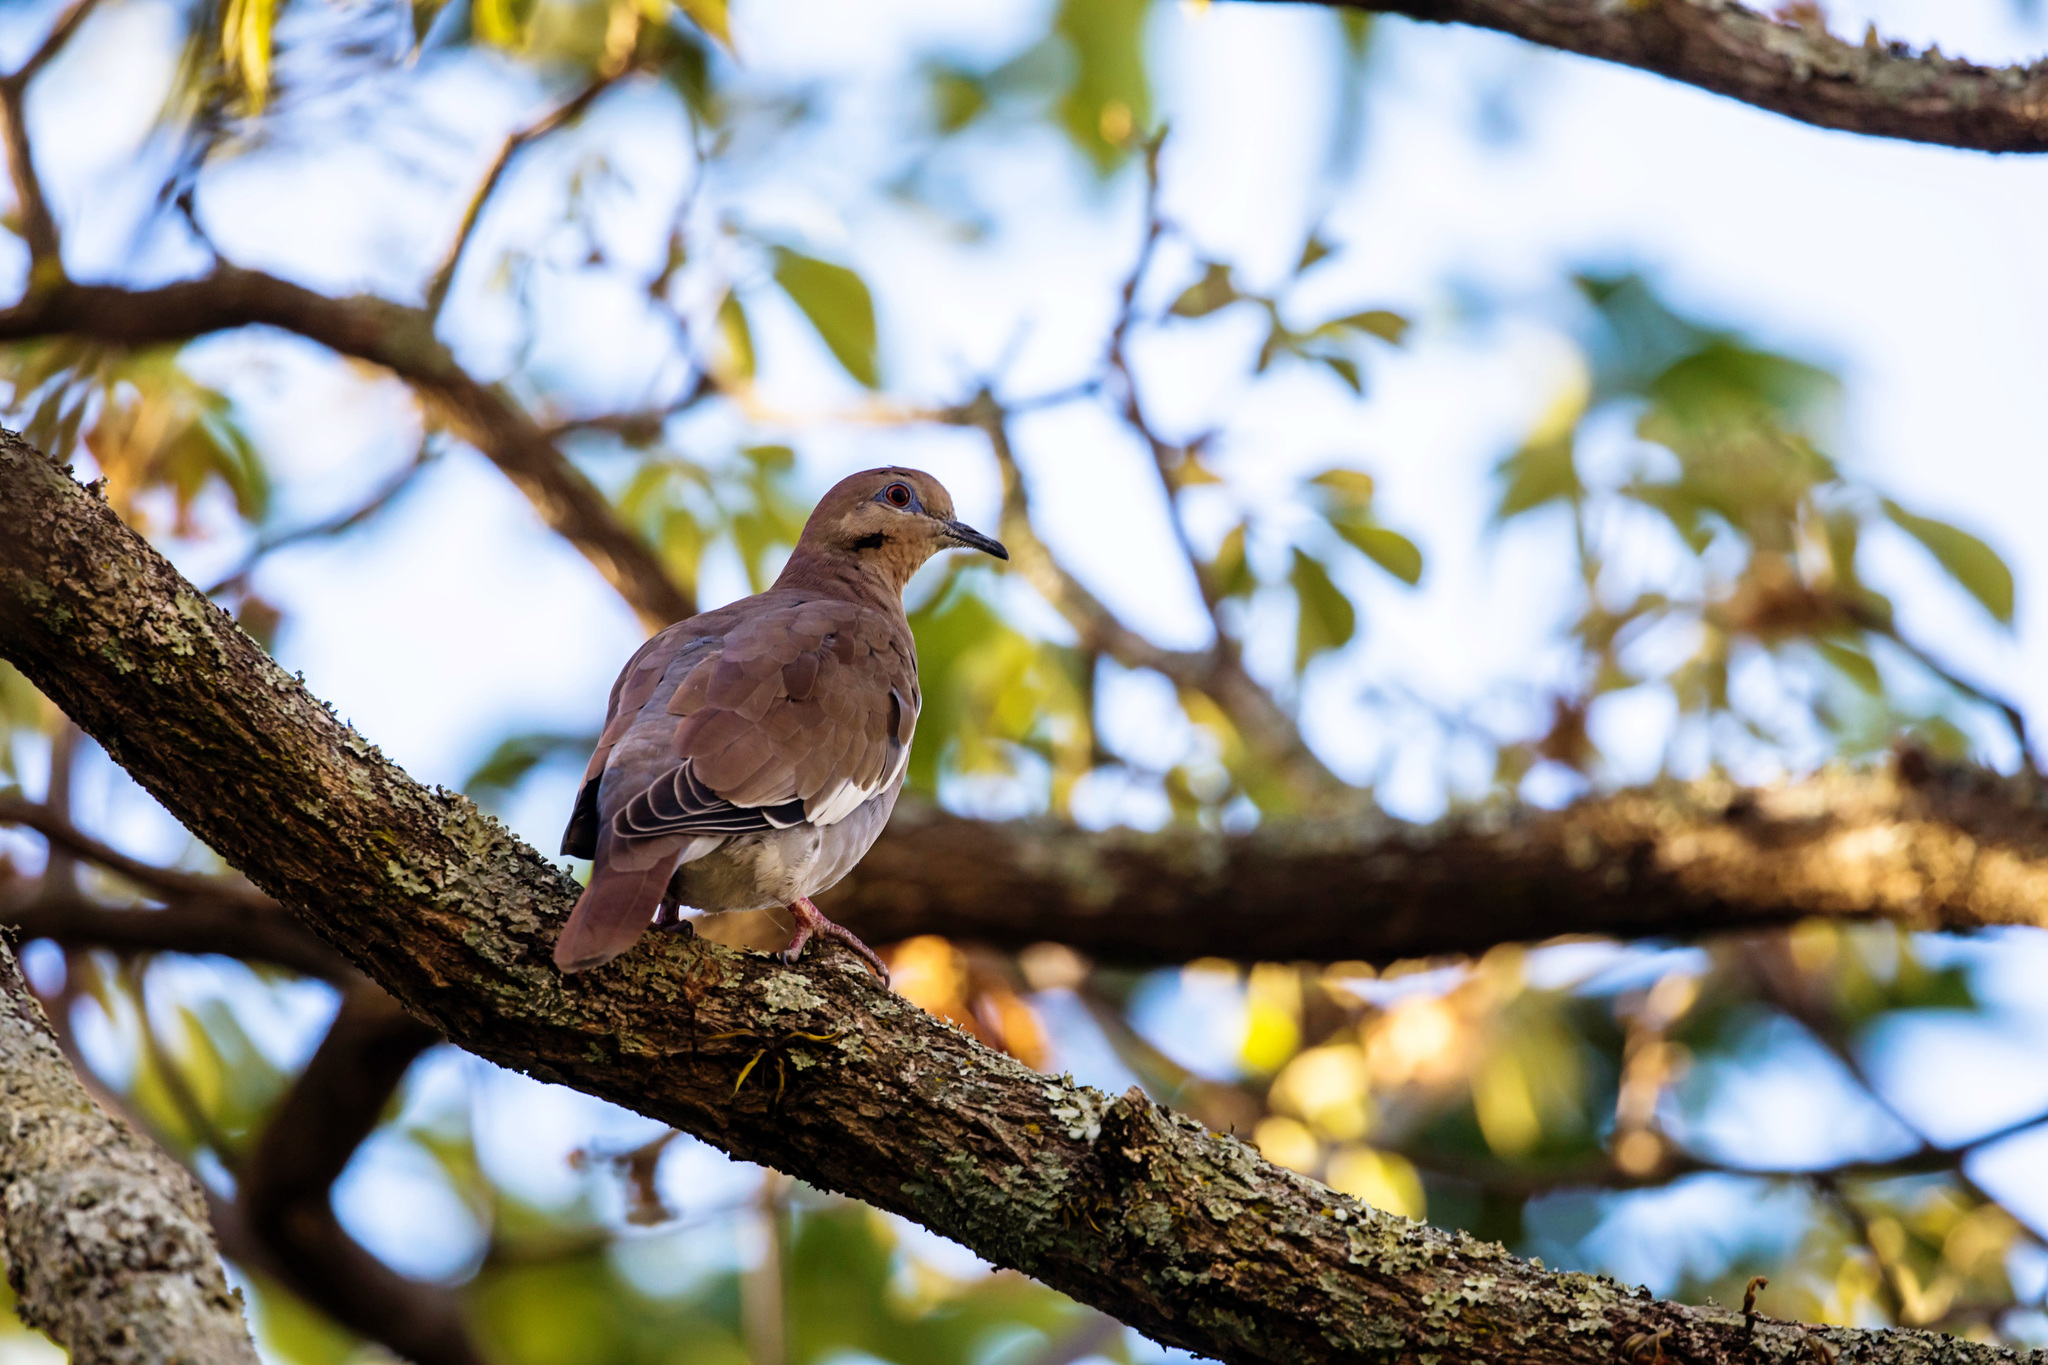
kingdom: Animalia
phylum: Chordata
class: Aves
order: Columbiformes
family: Columbidae
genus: Zenaida
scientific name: Zenaida asiatica
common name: White-winged dove
